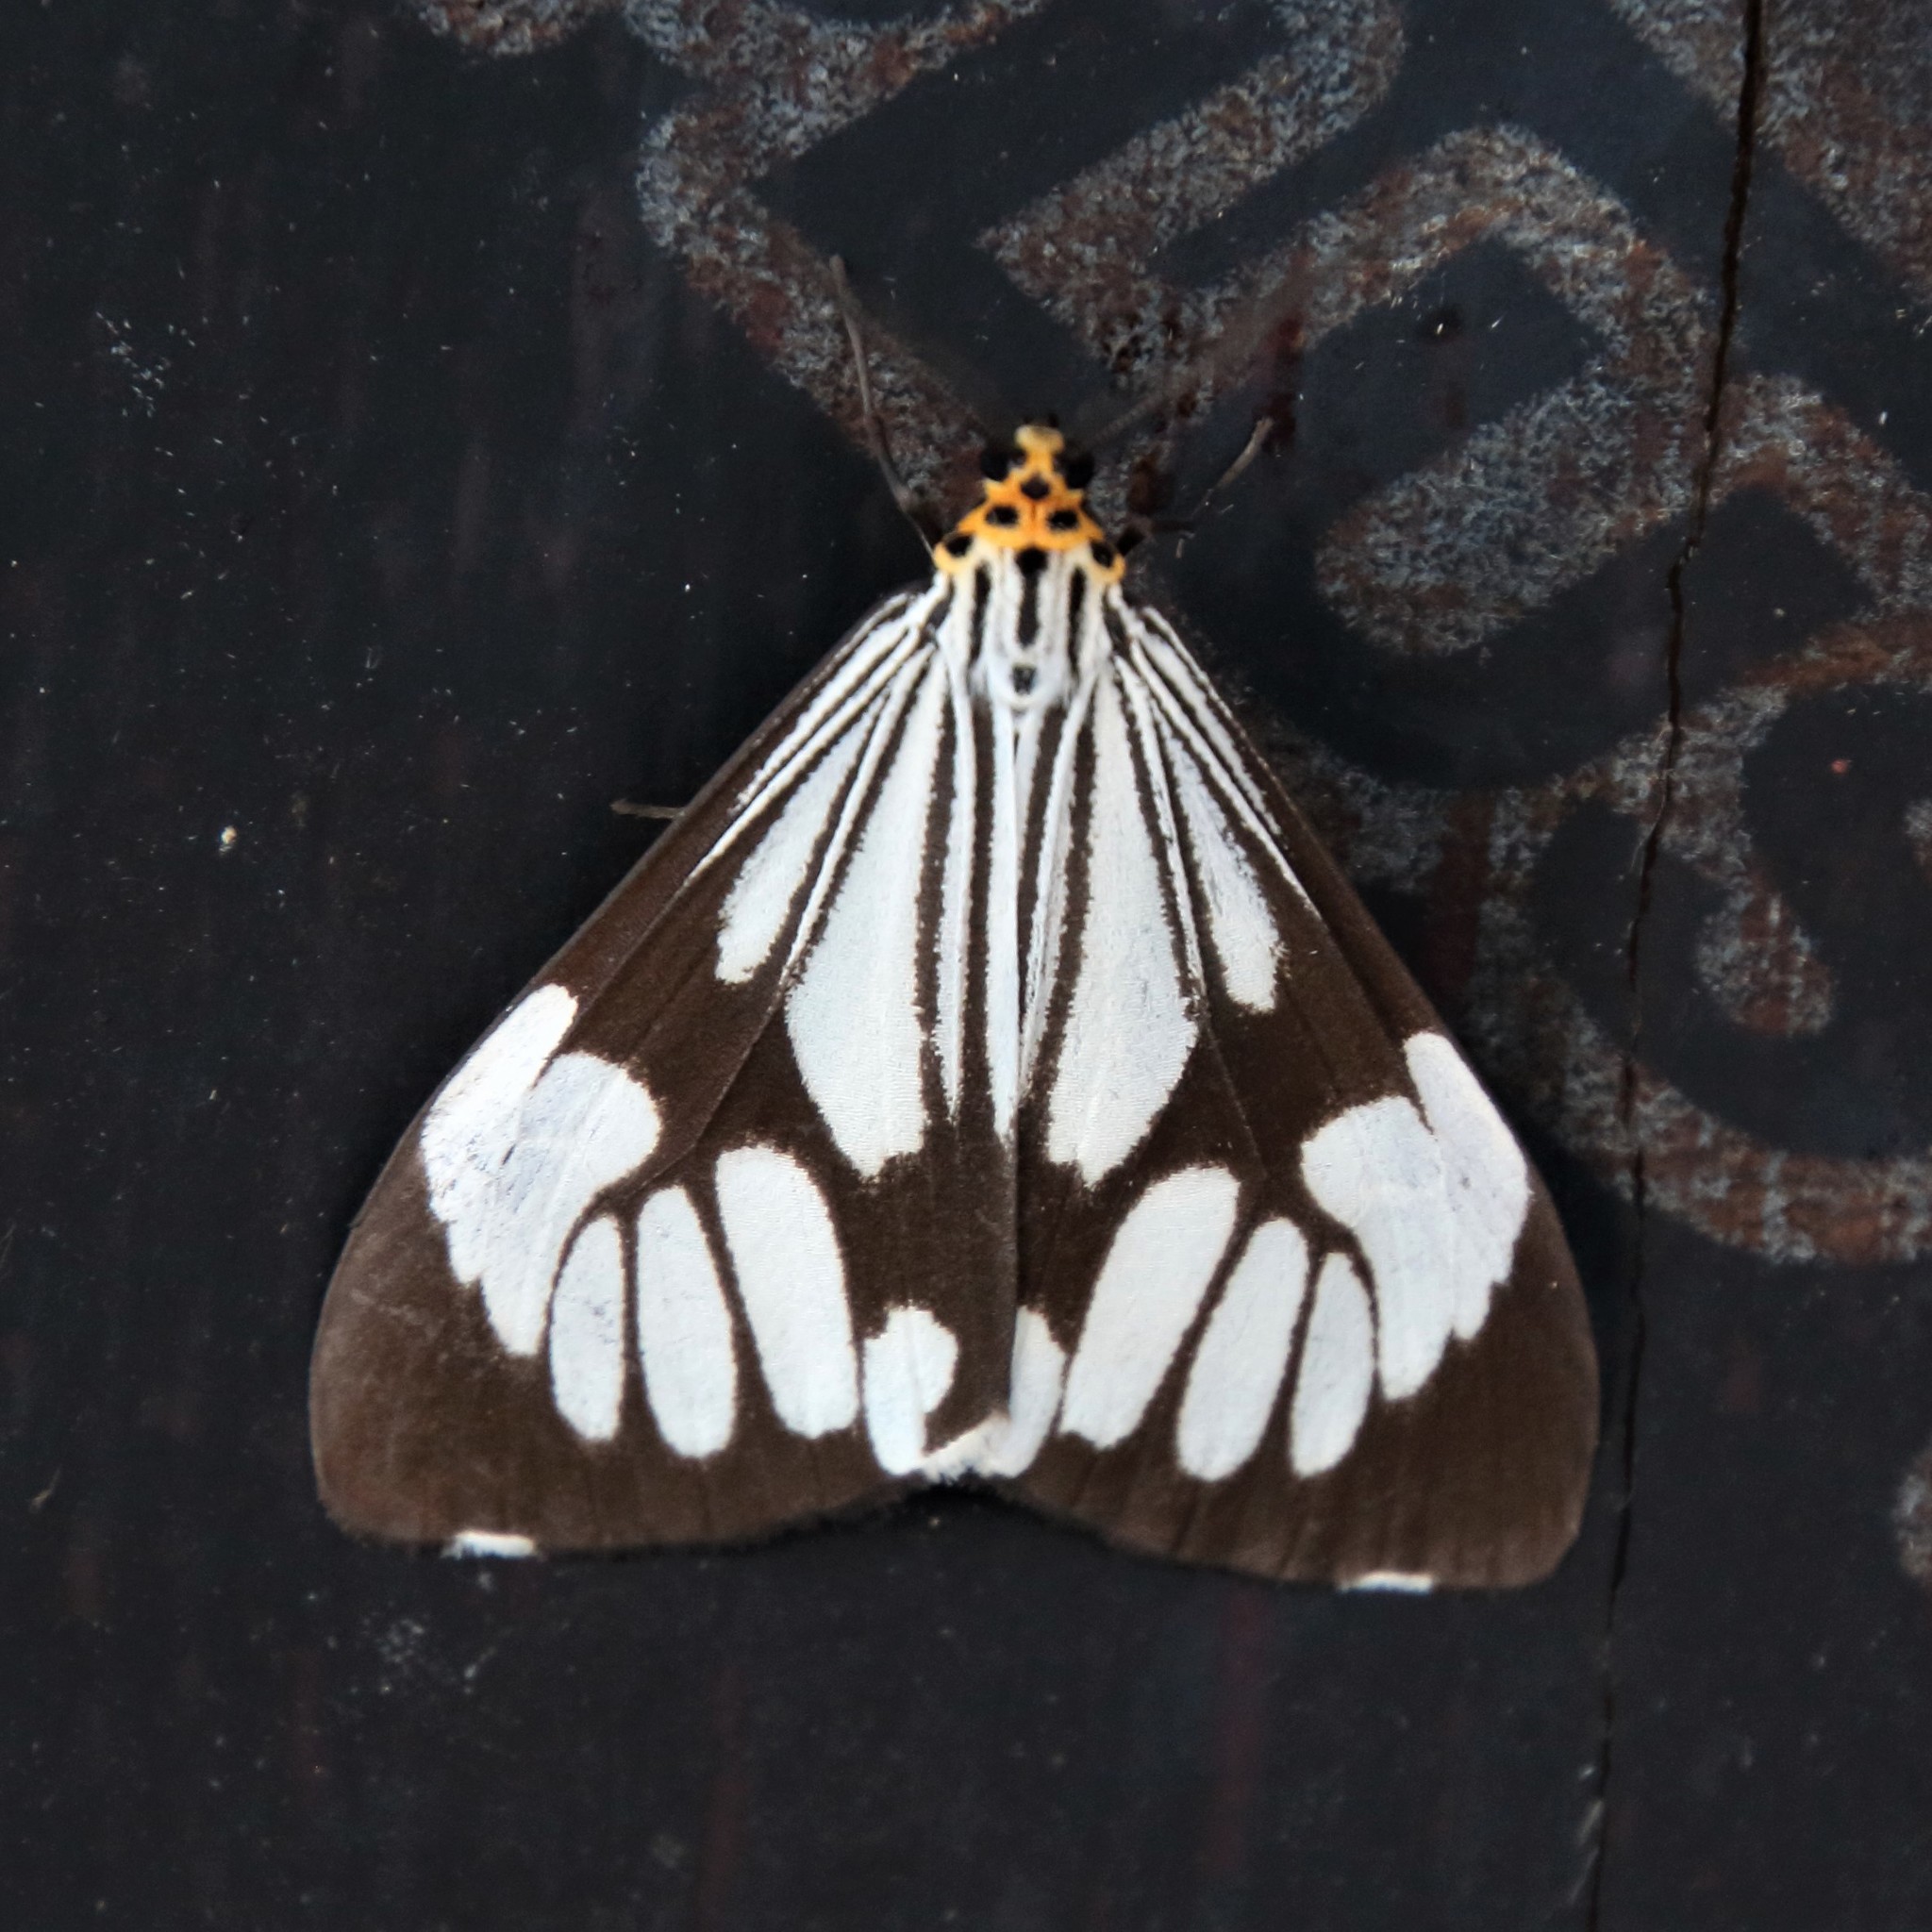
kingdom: Animalia
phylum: Arthropoda
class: Insecta
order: Lepidoptera
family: Erebidae
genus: Nyctemera
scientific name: Nyctemera coleta
